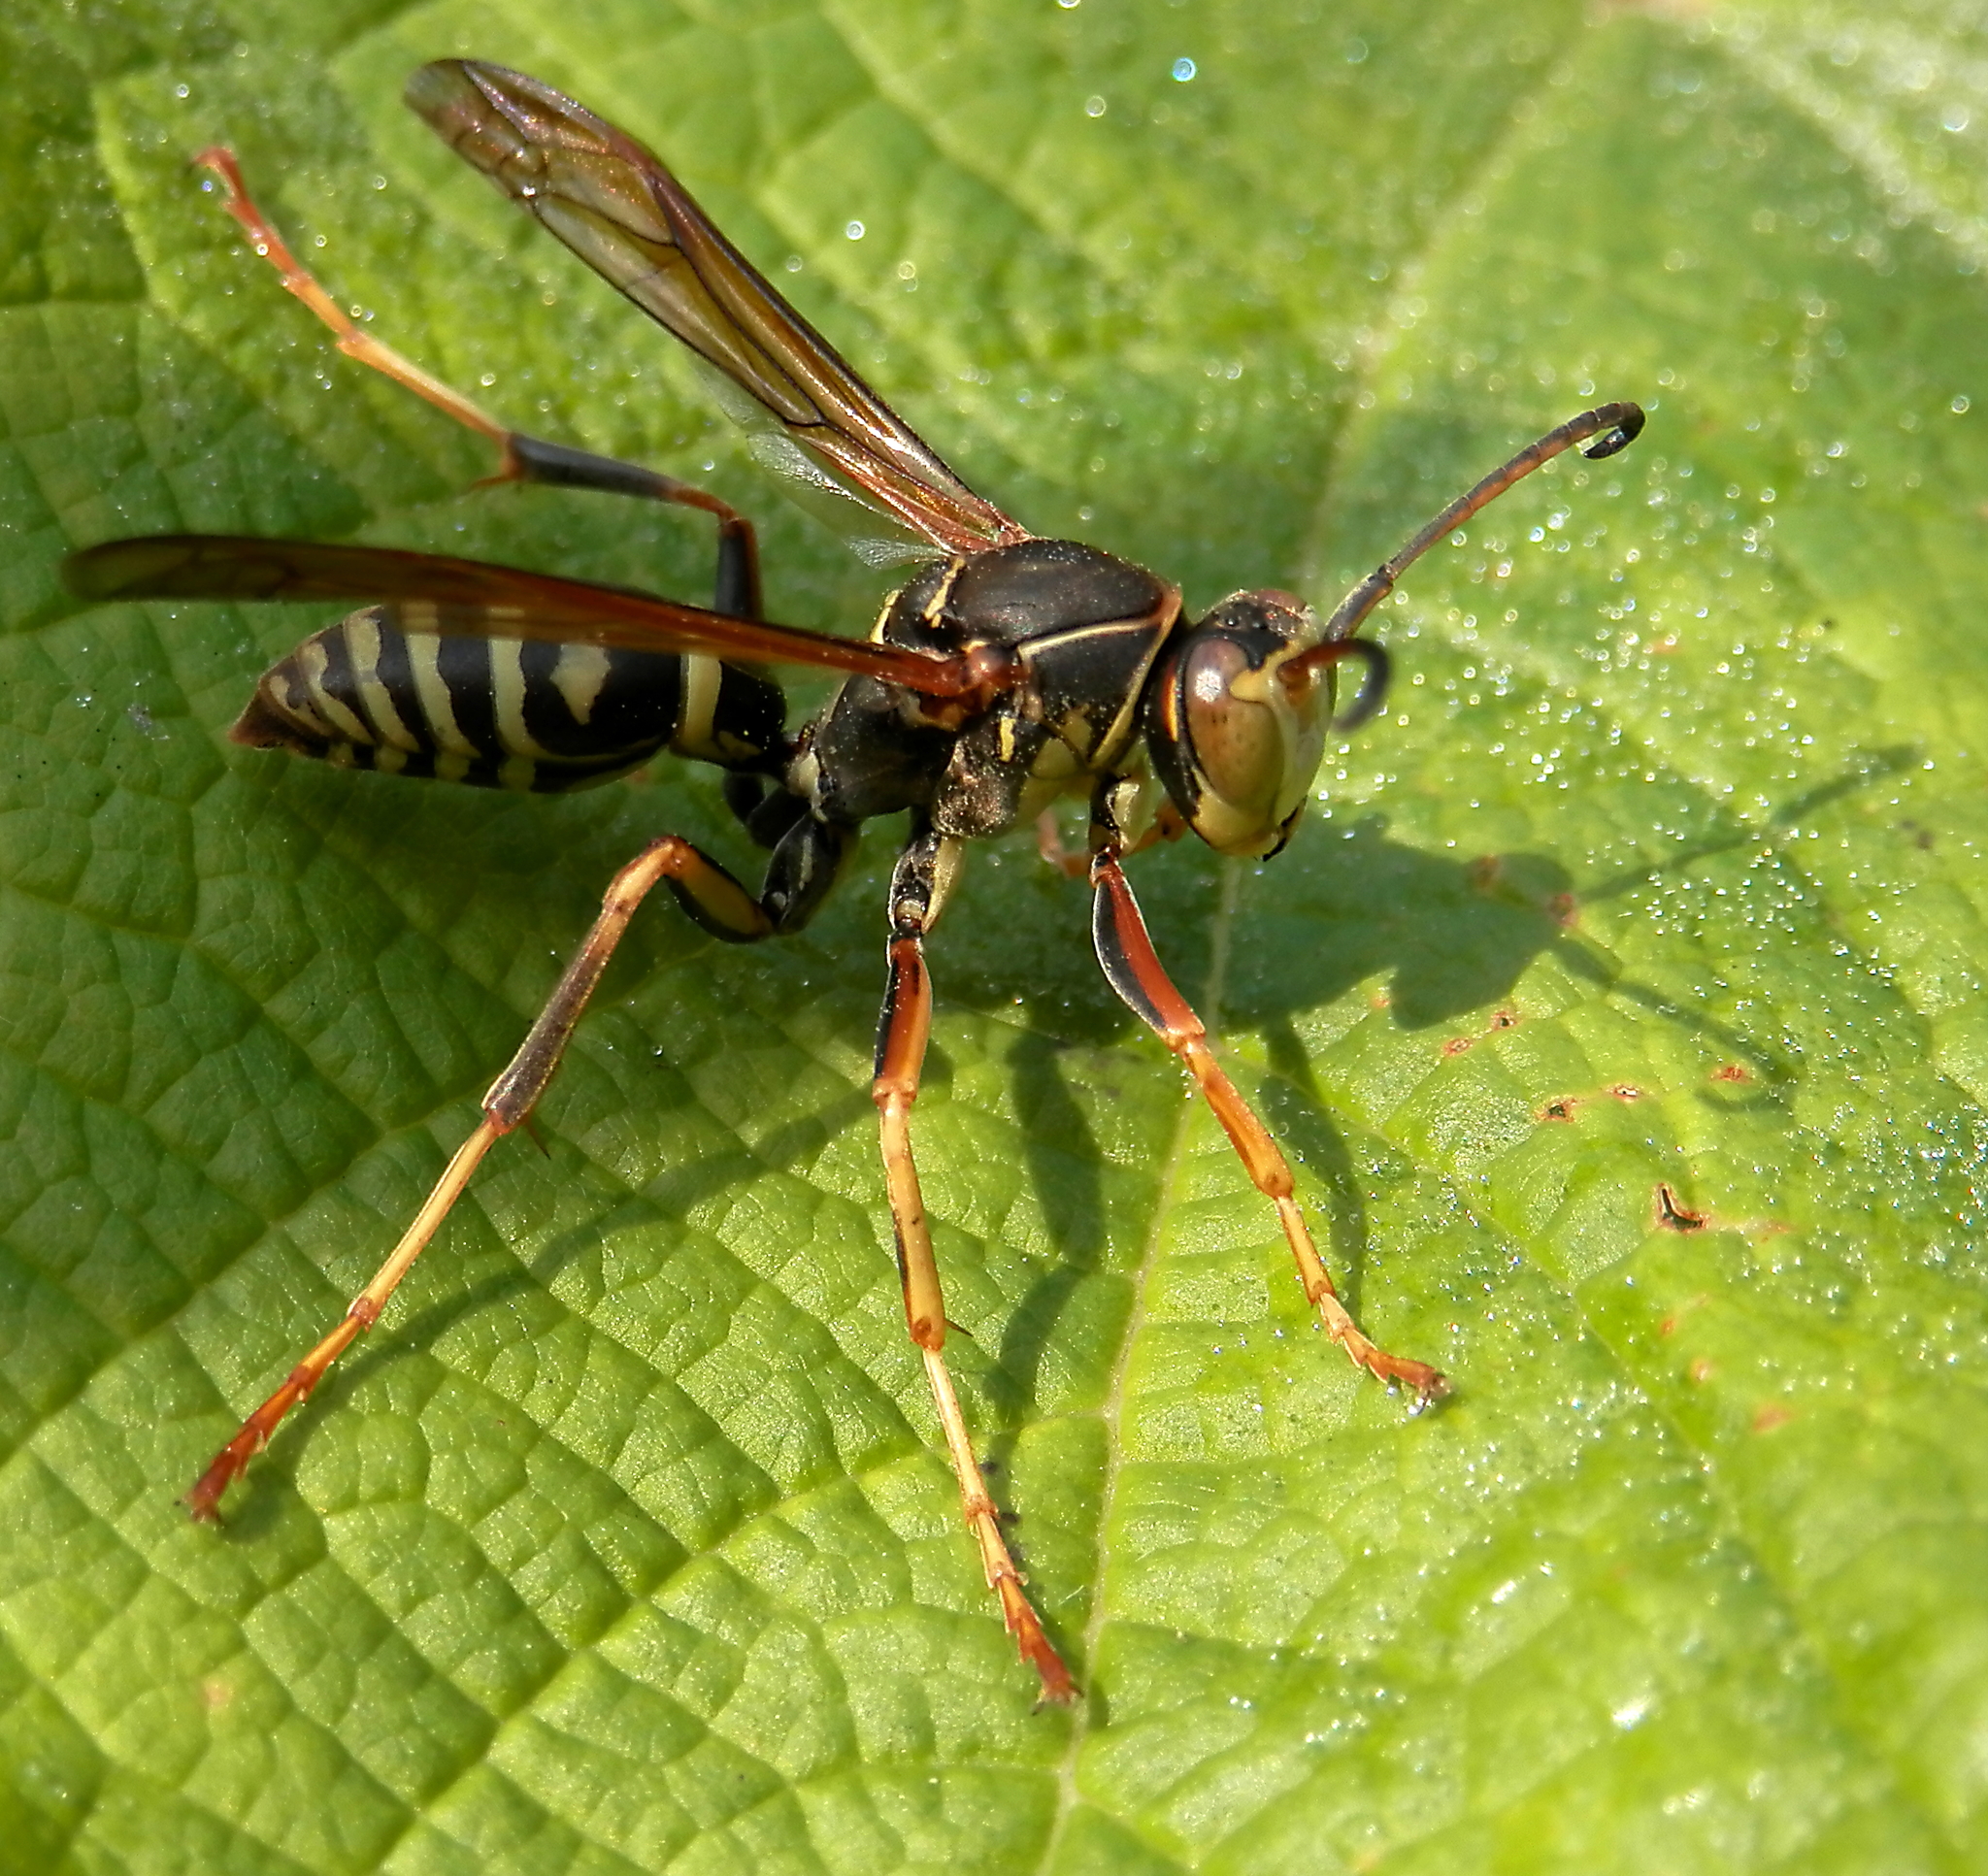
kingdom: Animalia
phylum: Arthropoda
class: Insecta
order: Hymenoptera
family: Eumenidae
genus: Polistes
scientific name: Polistes fuscatus
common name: Dark paper wasp
